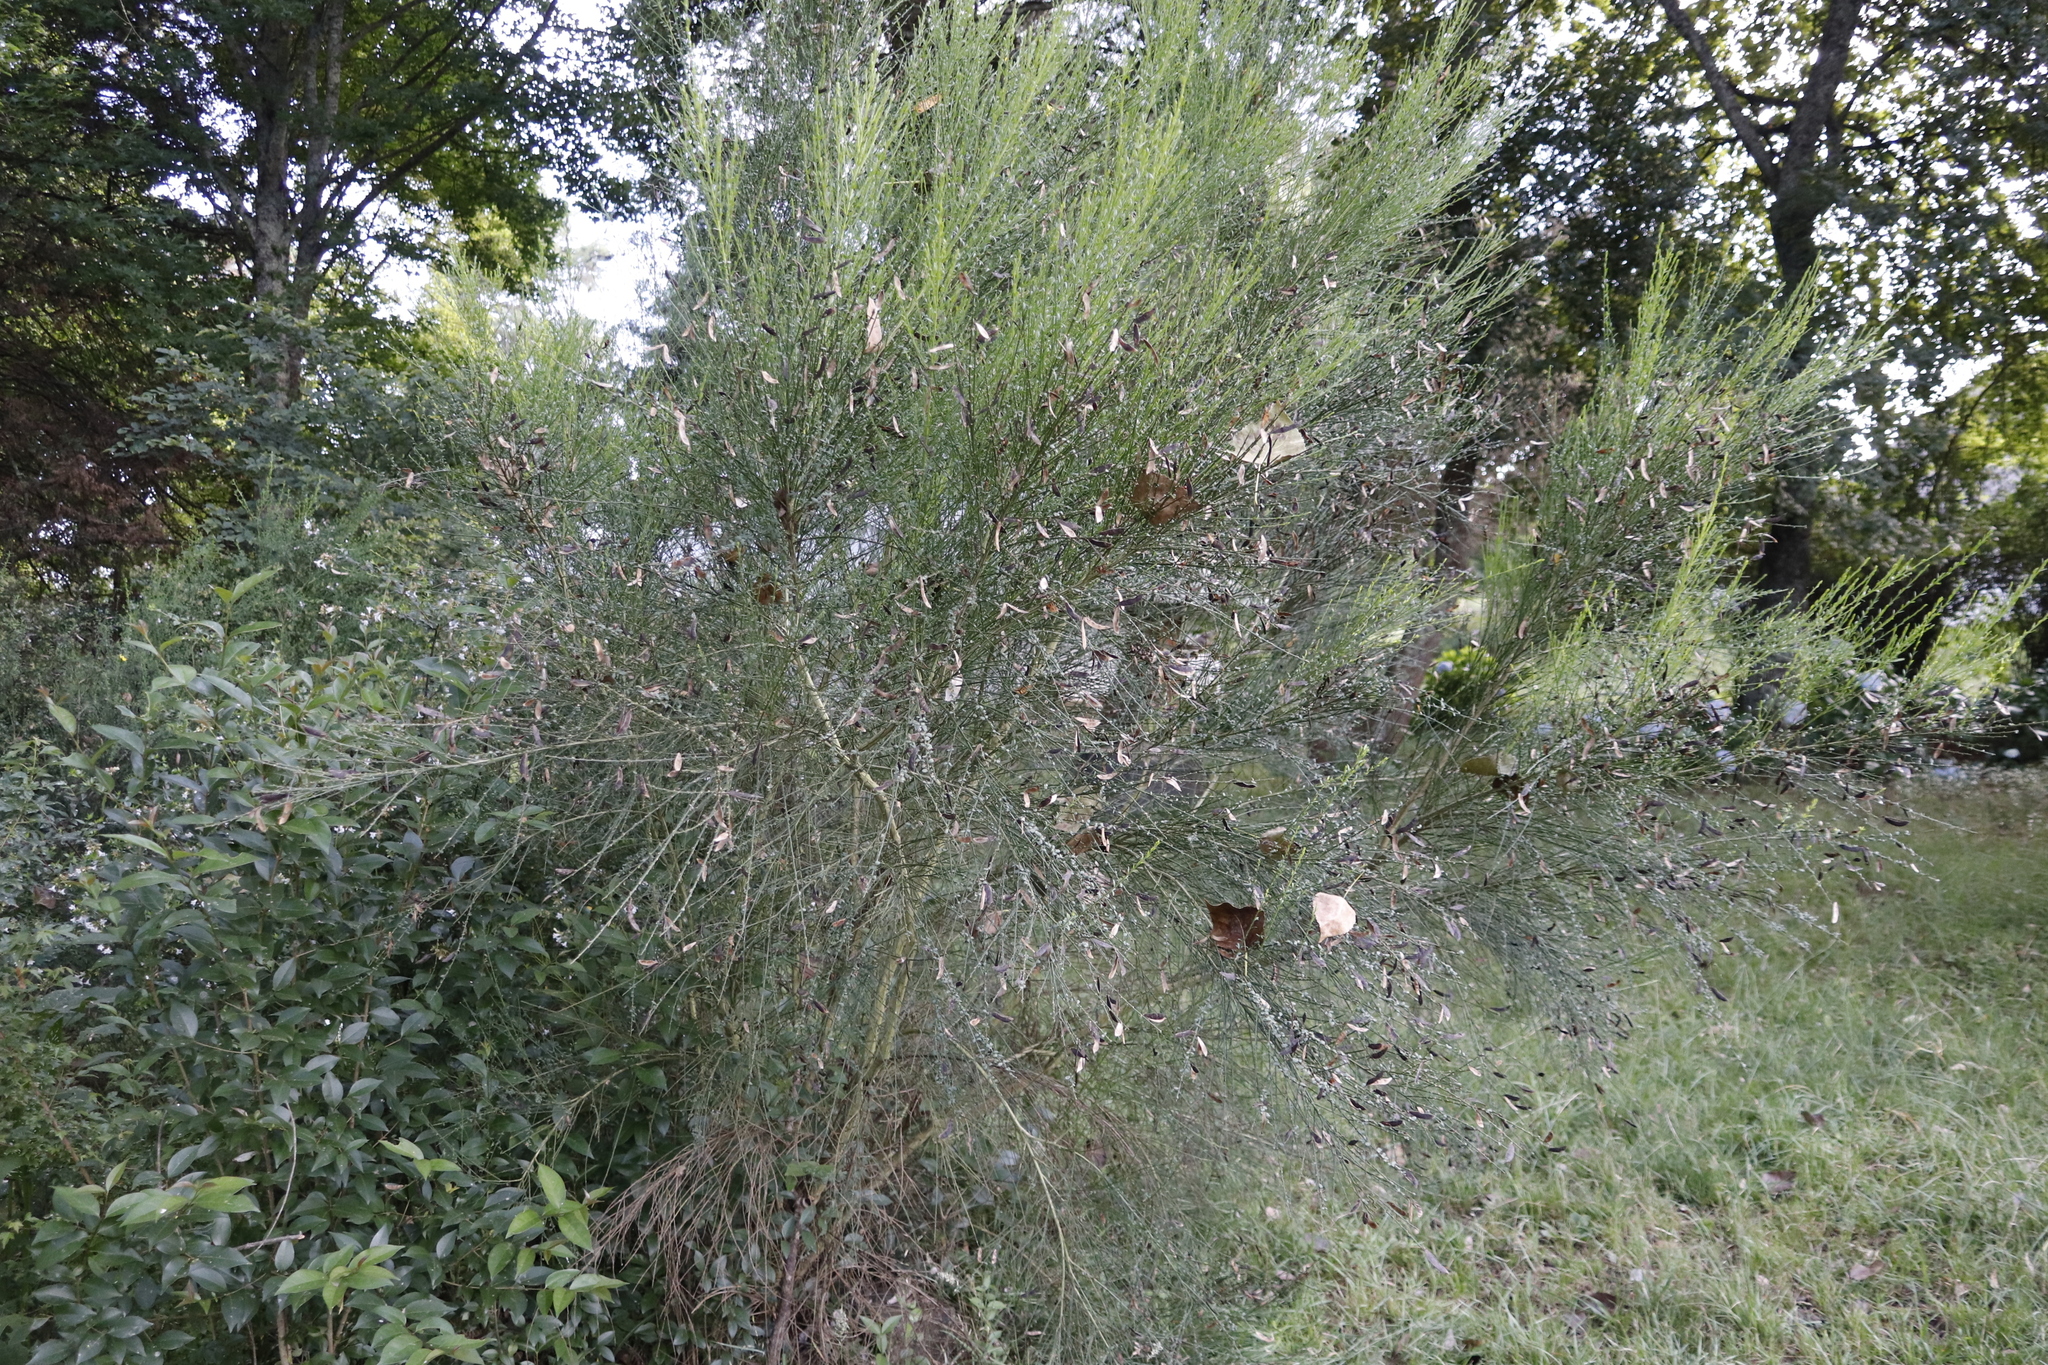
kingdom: Plantae
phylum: Tracheophyta
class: Magnoliopsida
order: Fabales
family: Fabaceae
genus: Spartium
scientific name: Spartium junceum
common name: Spanish broom
